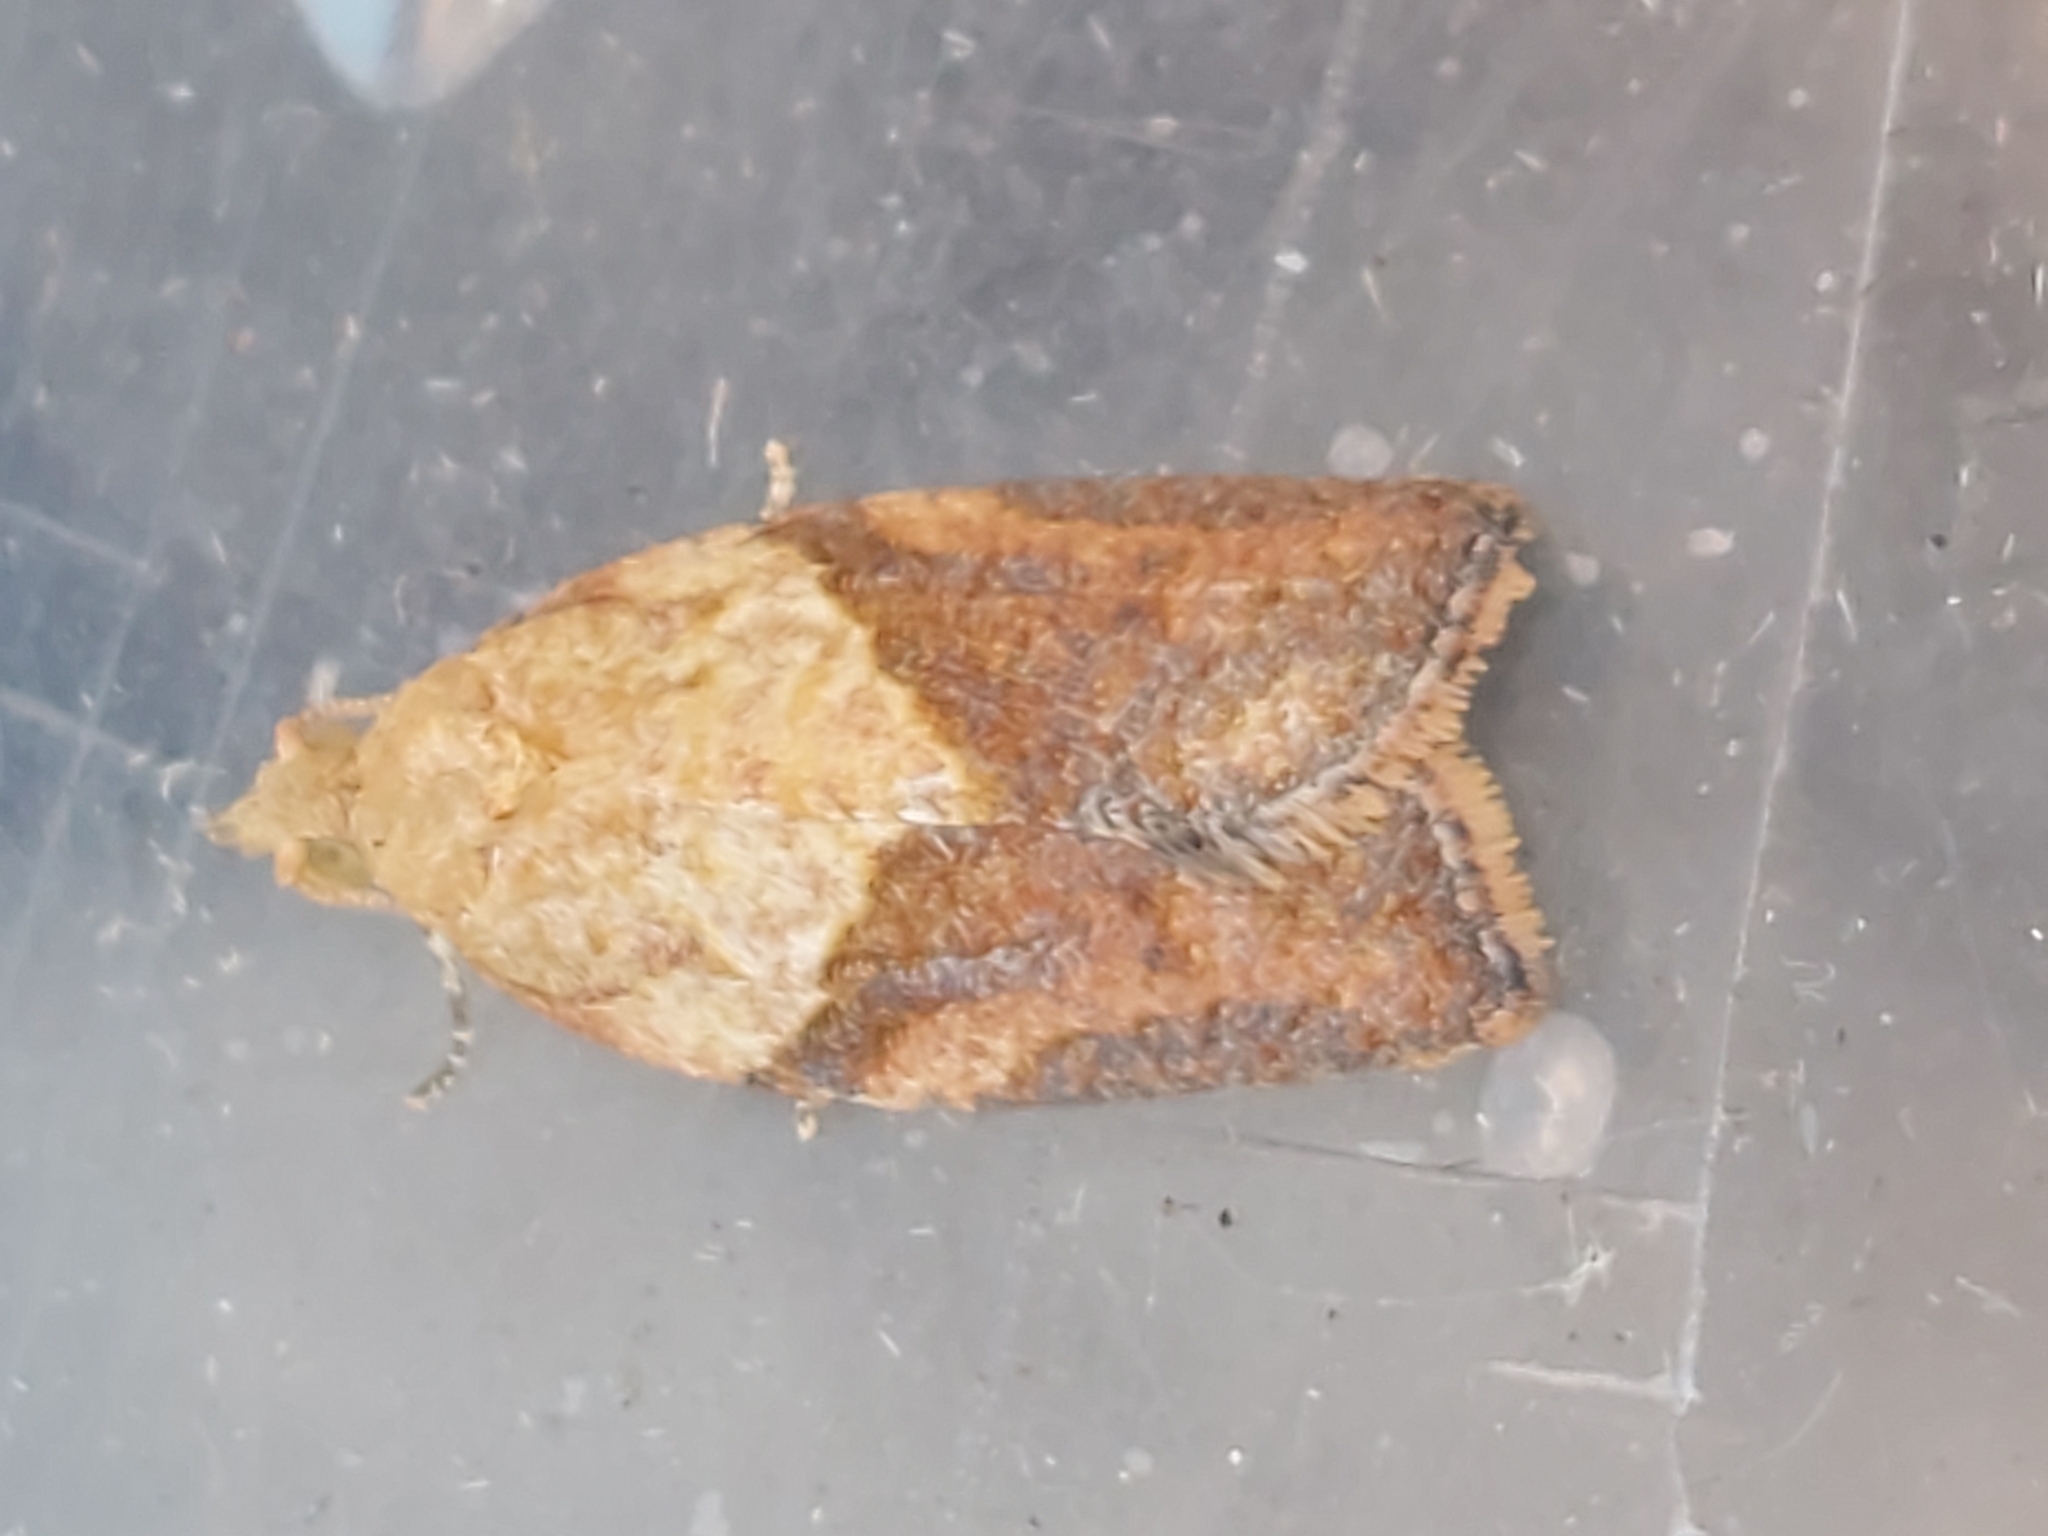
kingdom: Animalia
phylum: Arthropoda
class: Insecta
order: Lepidoptera
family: Tortricidae
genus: Epiphyas
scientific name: Epiphyas postvittana
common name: Light brown apple moth
